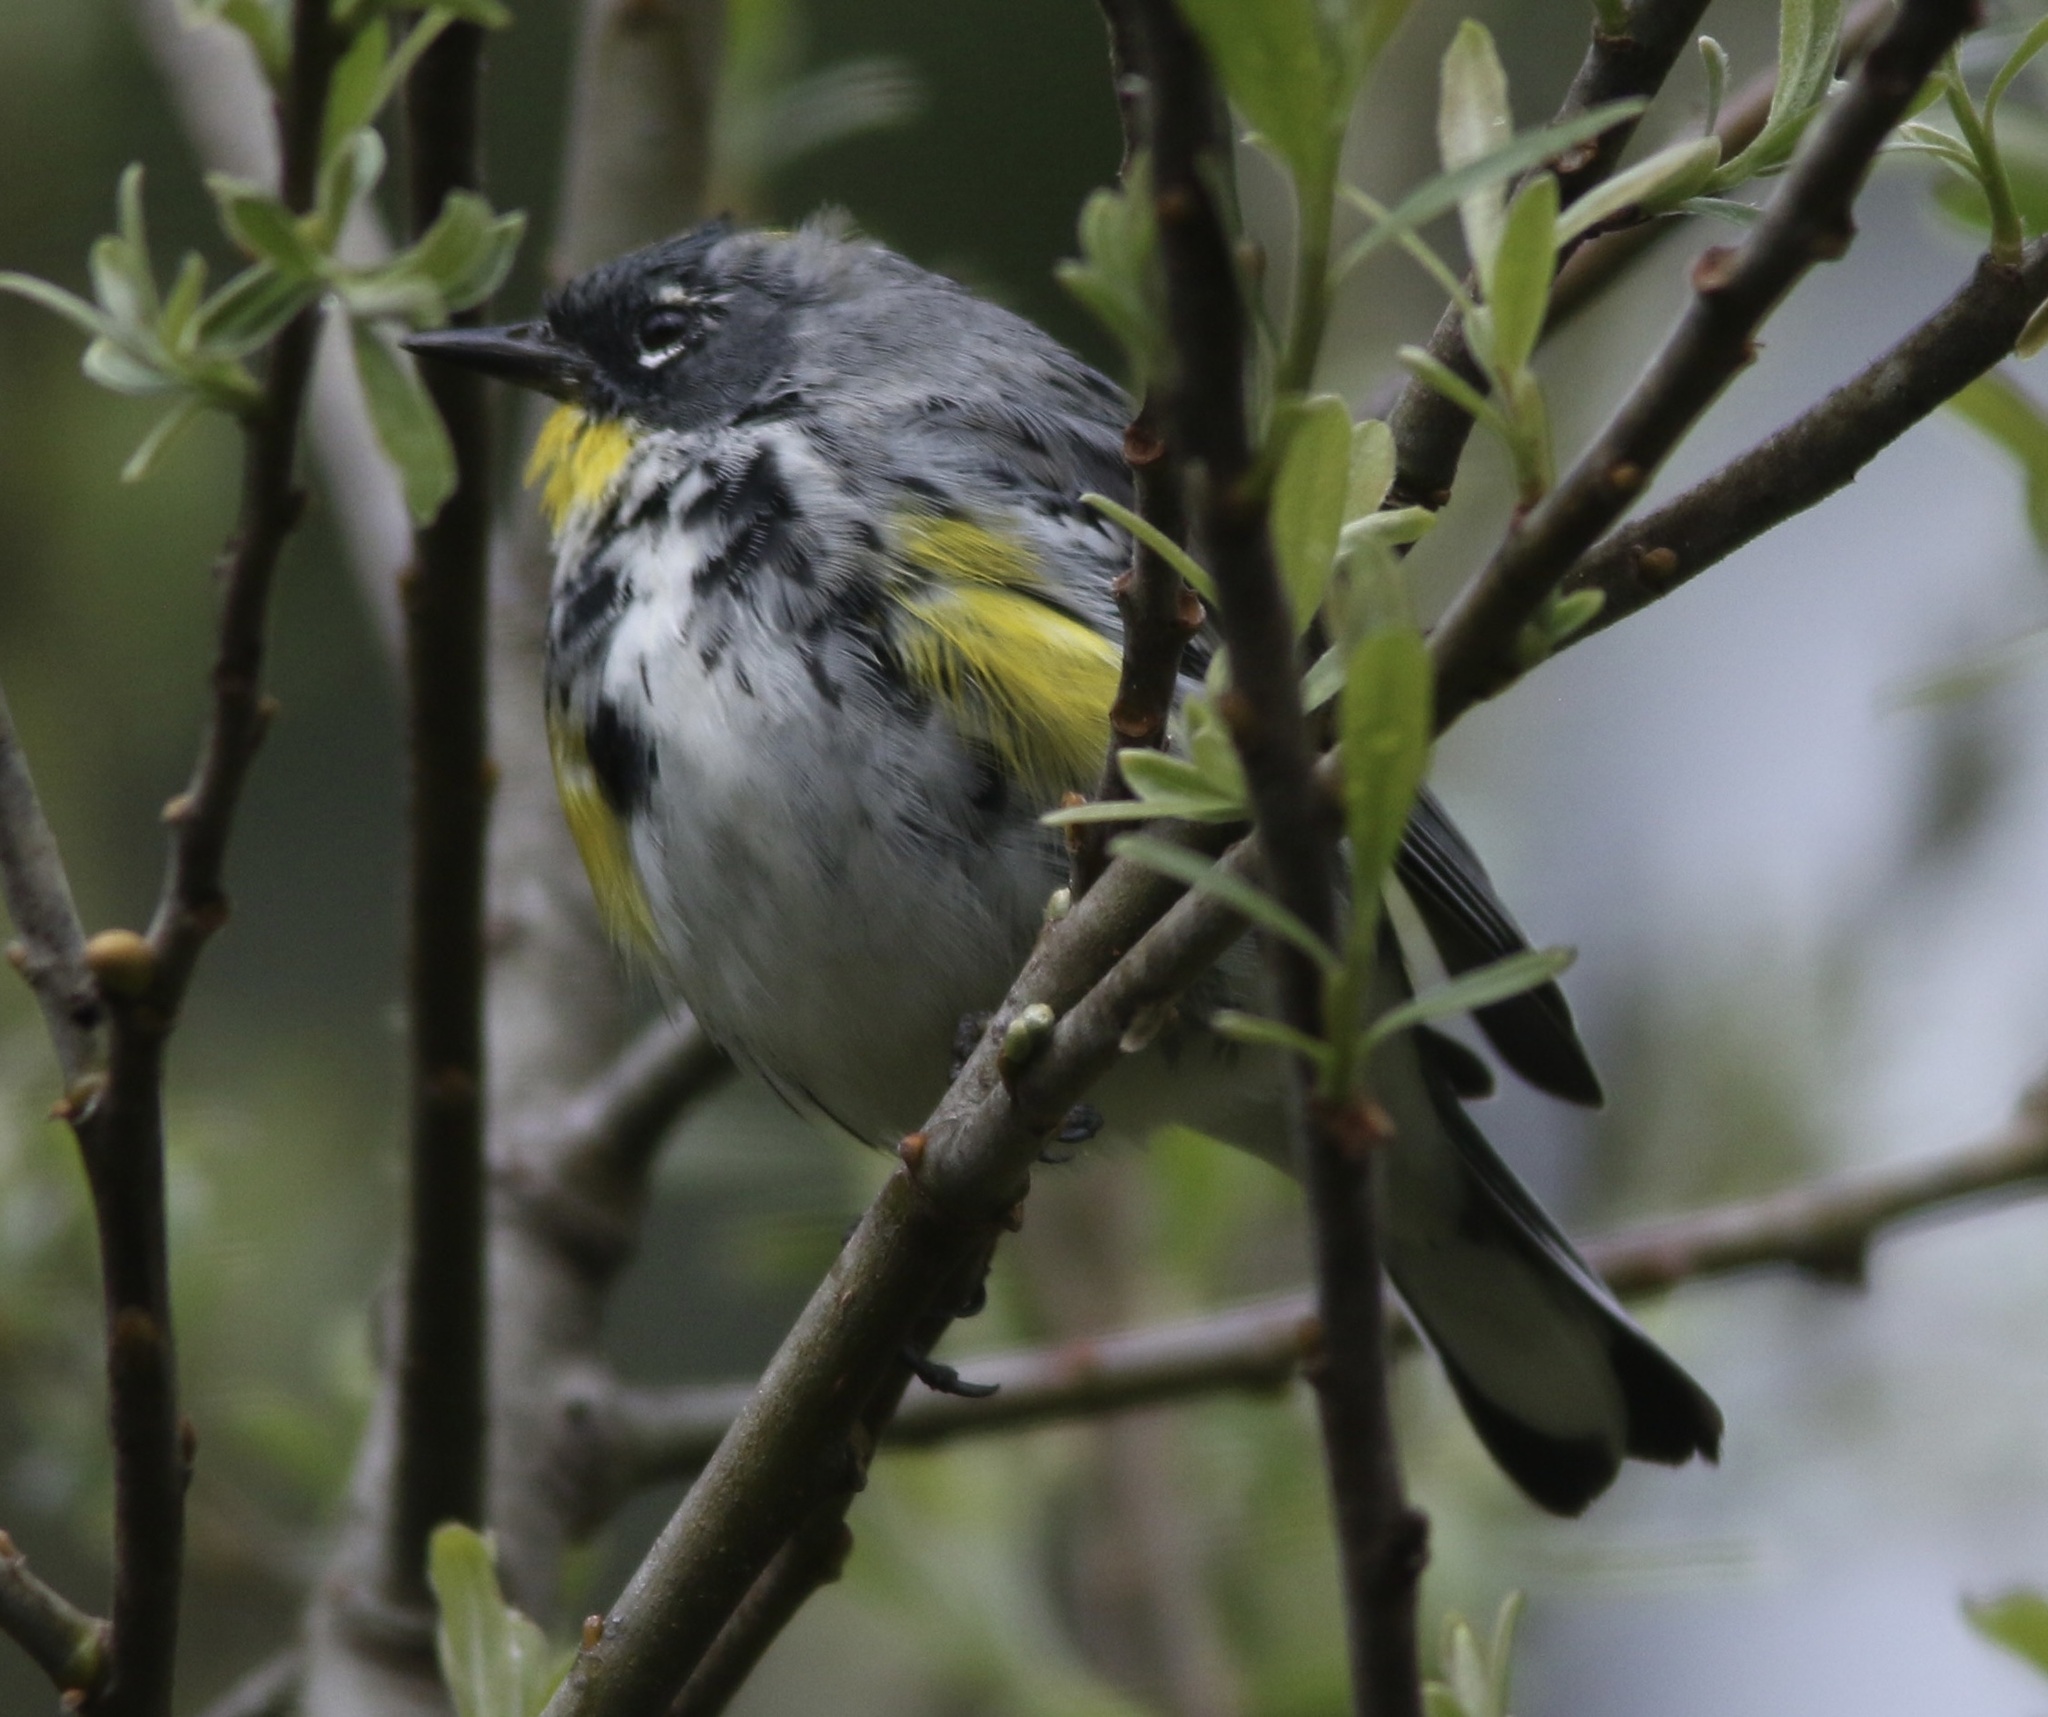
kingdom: Animalia
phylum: Chordata
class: Aves
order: Passeriformes
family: Parulidae
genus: Setophaga
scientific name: Setophaga coronata
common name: Myrtle warbler
